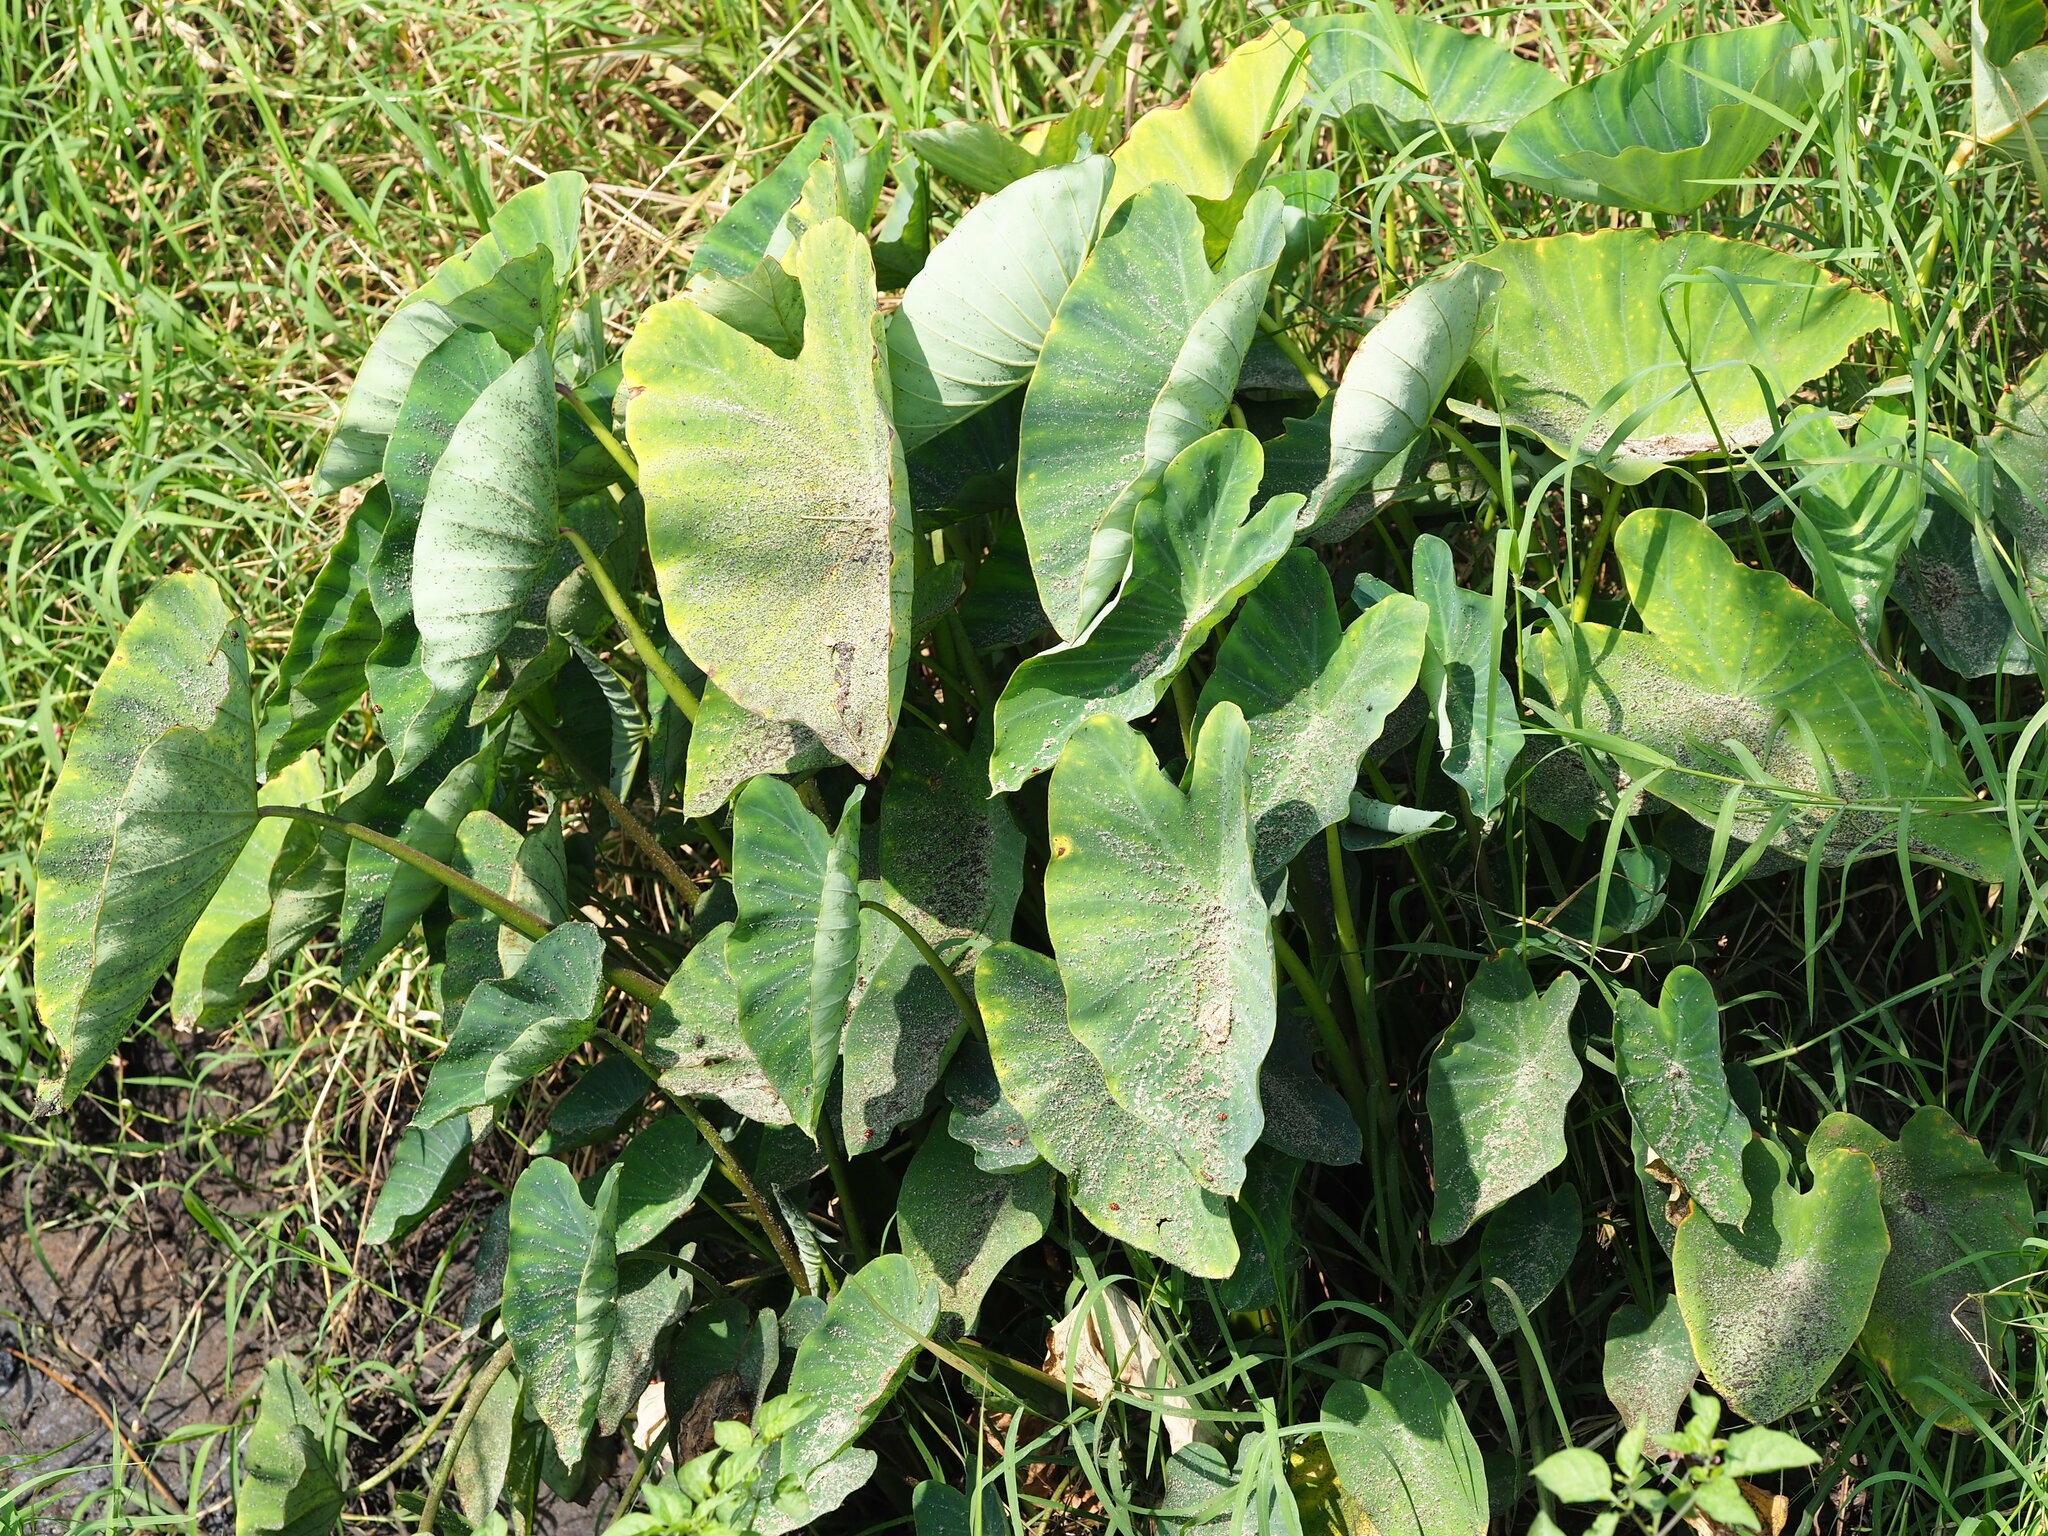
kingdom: Plantae
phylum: Tracheophyta
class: Liliopsida
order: Alismatales
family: Araceae
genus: Colocasia
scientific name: Colocasia esculenta
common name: Taro
